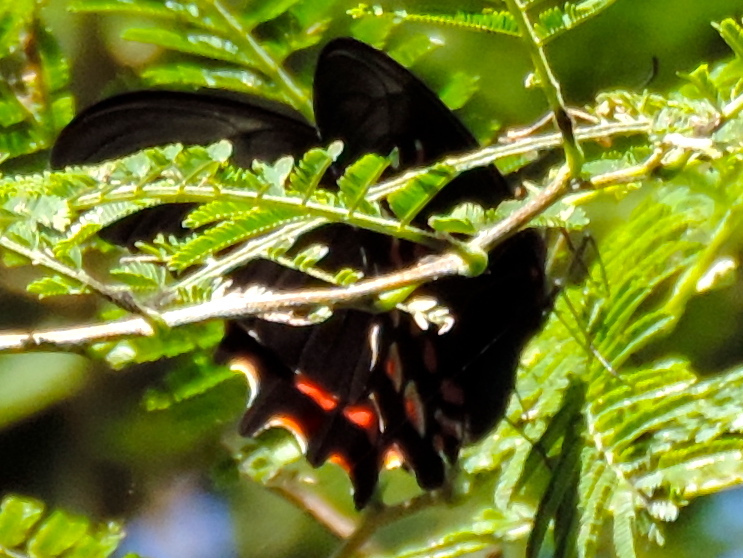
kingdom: Animalia
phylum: Arthropoda
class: Insecta
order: Lepidoptera
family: Papilionidae
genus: Heraclides
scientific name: Heraclides rogeri
